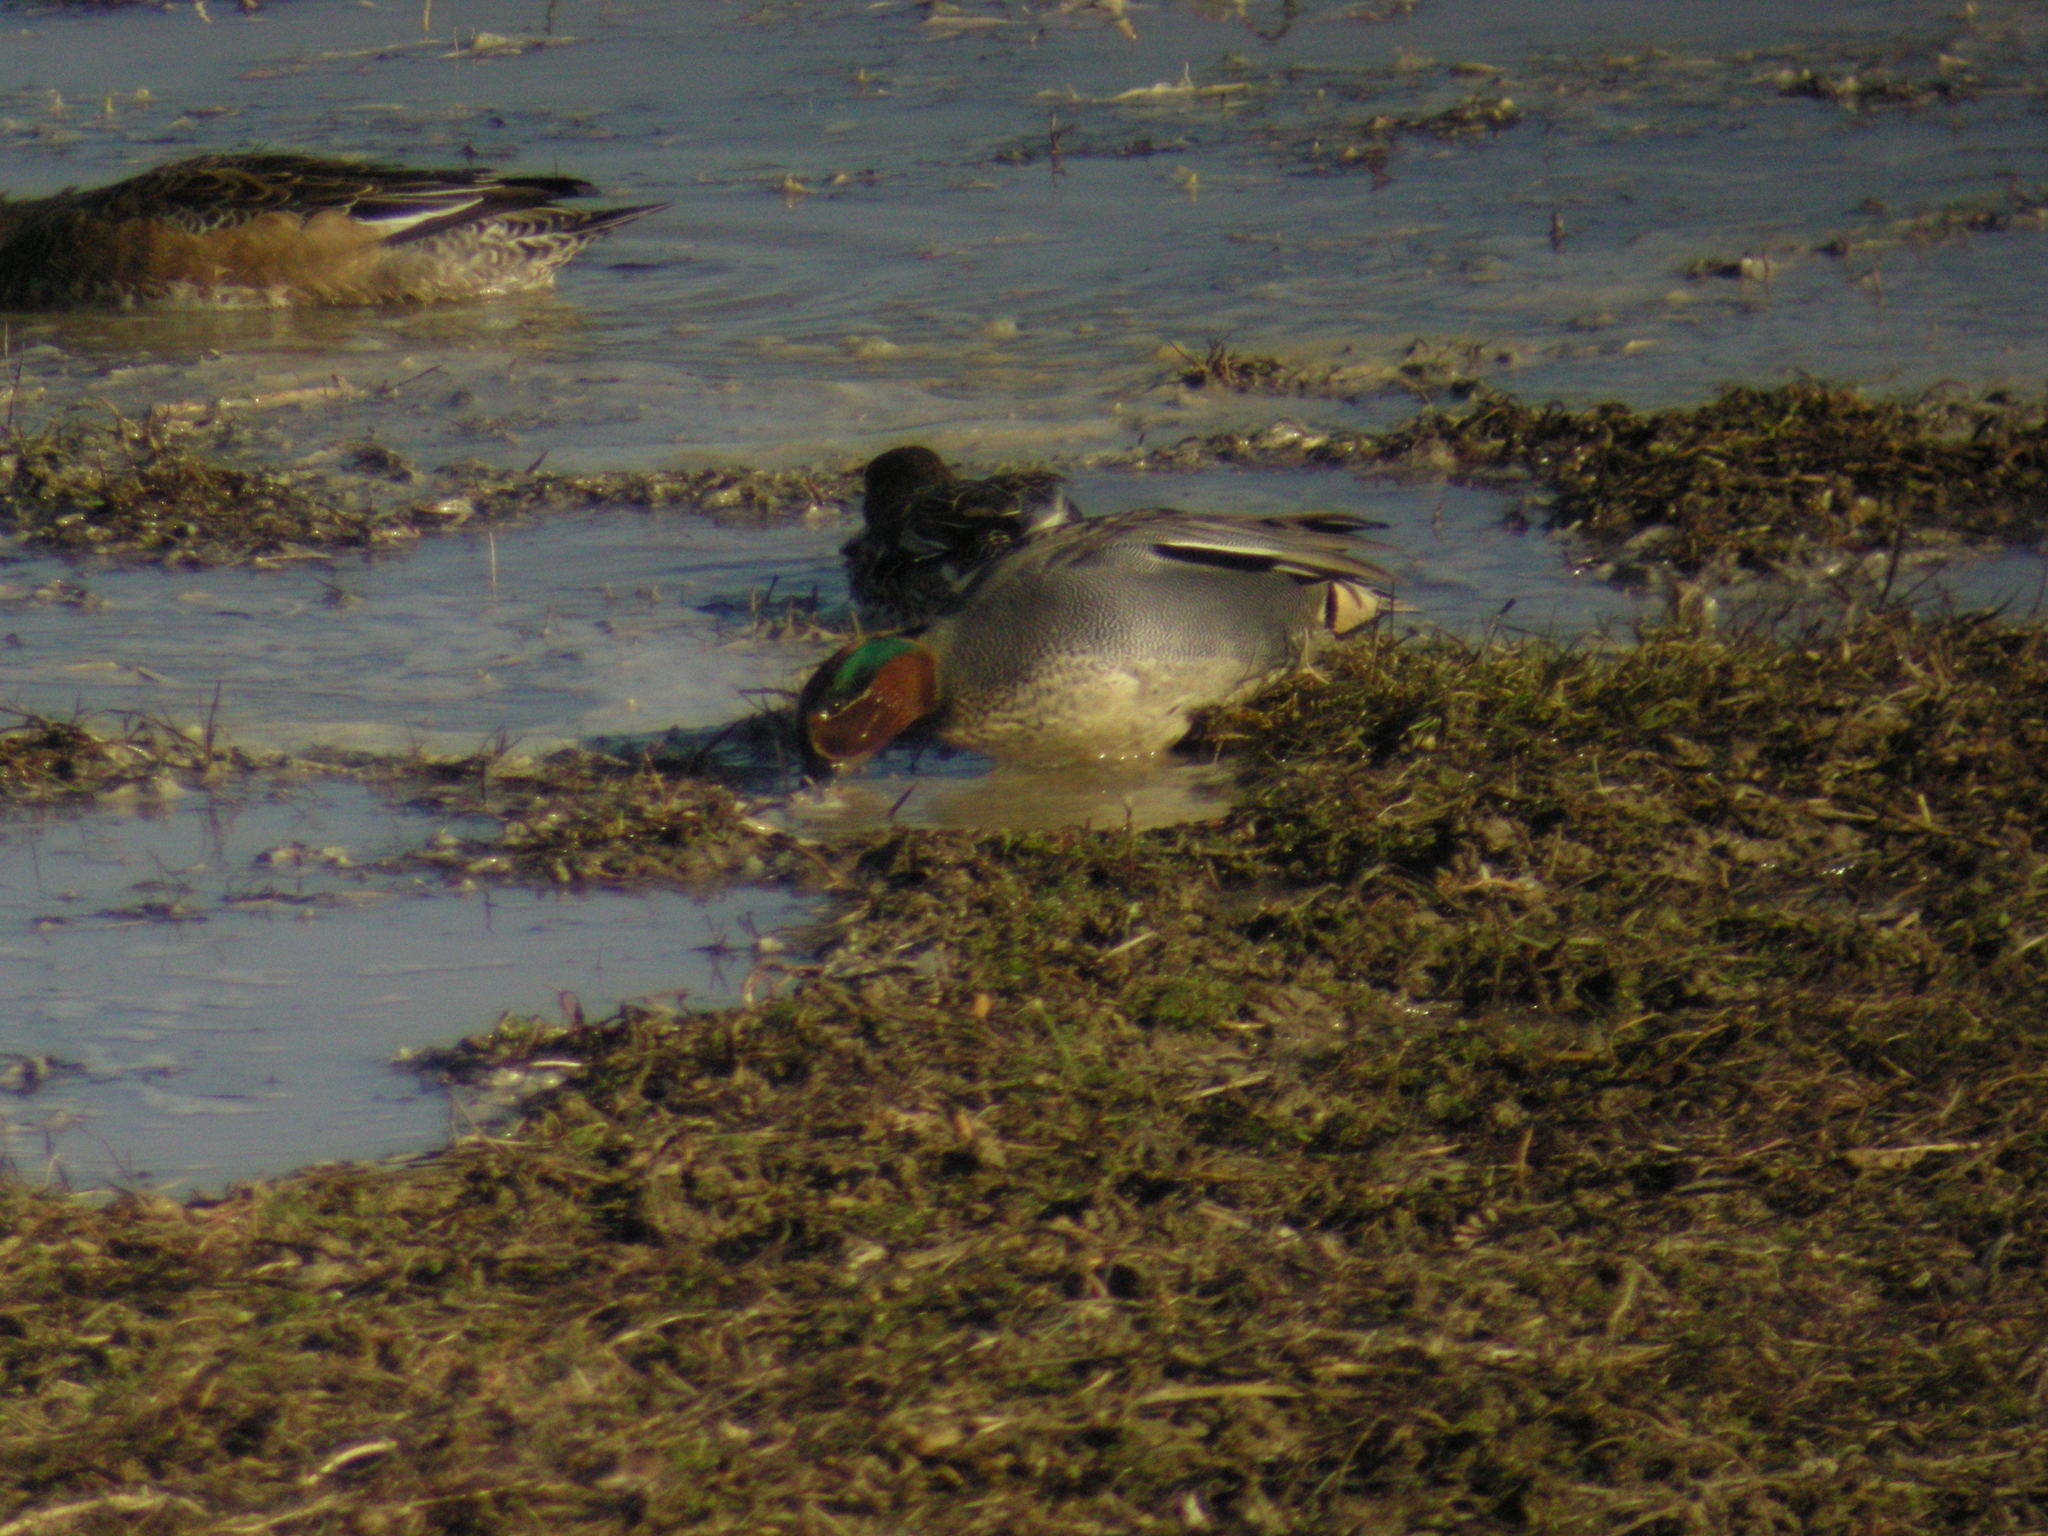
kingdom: Animalia
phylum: Chordata
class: Aves
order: Anseriformes
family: Anatidae
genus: Anas
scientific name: Anas crecca
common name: Eurasian teal
